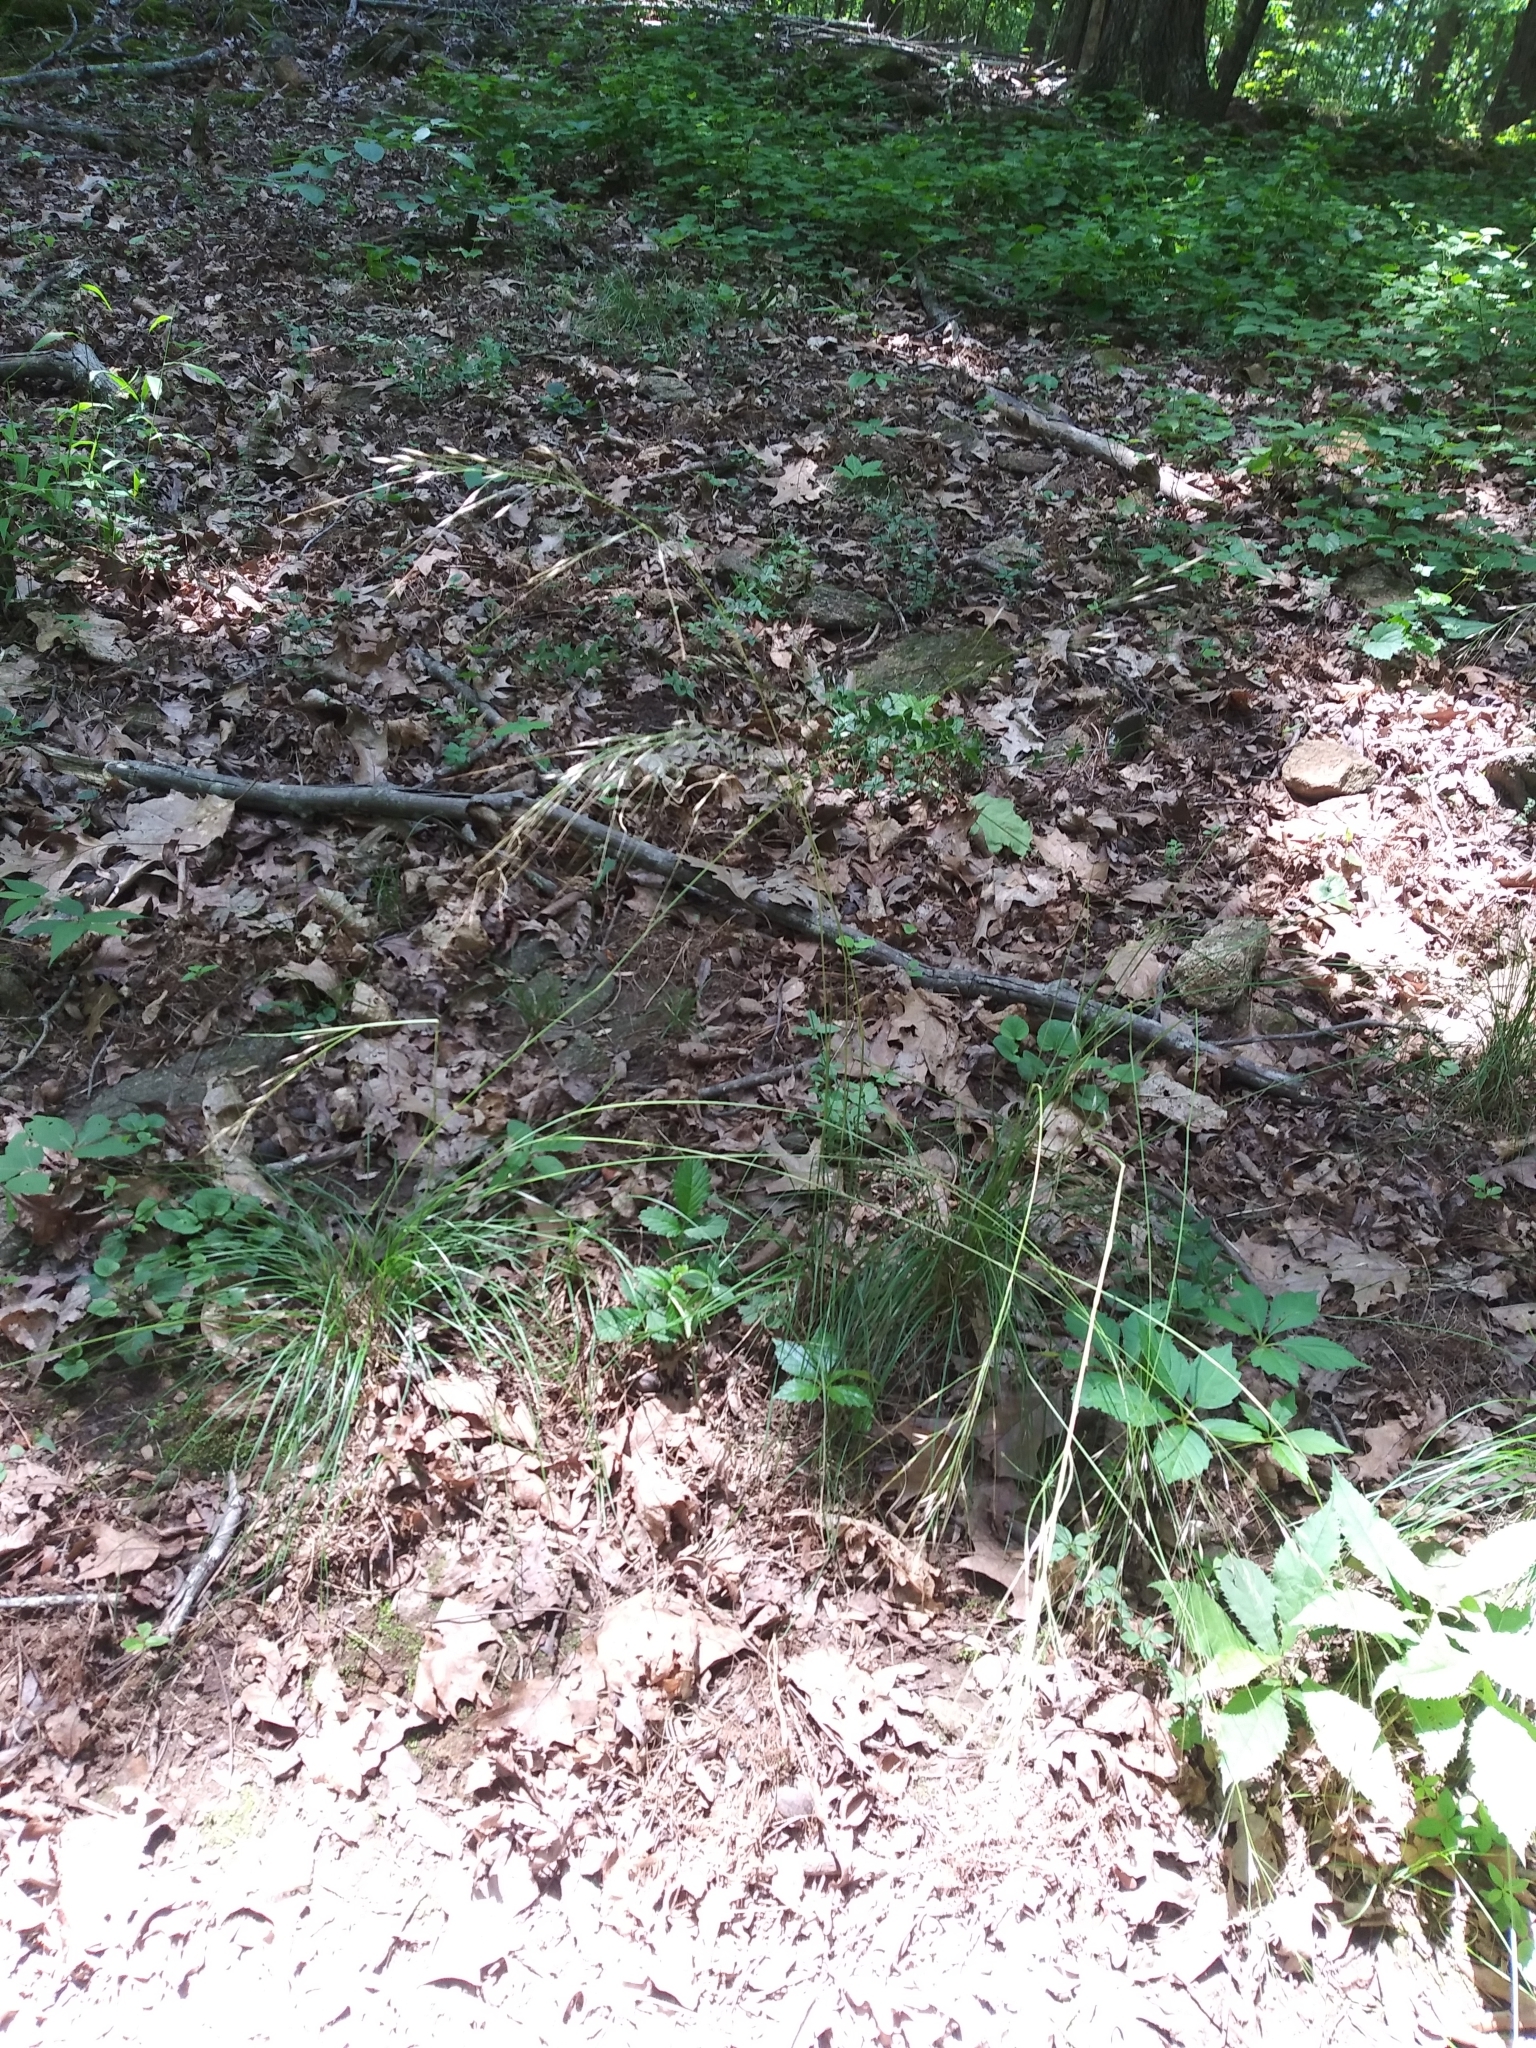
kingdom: Plantae
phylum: Tracheophyta
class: Liliopsida
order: Poales
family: Poaceae
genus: Piptochaetium
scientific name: Piptochaetium avenaceum
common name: Black bunchgrass
